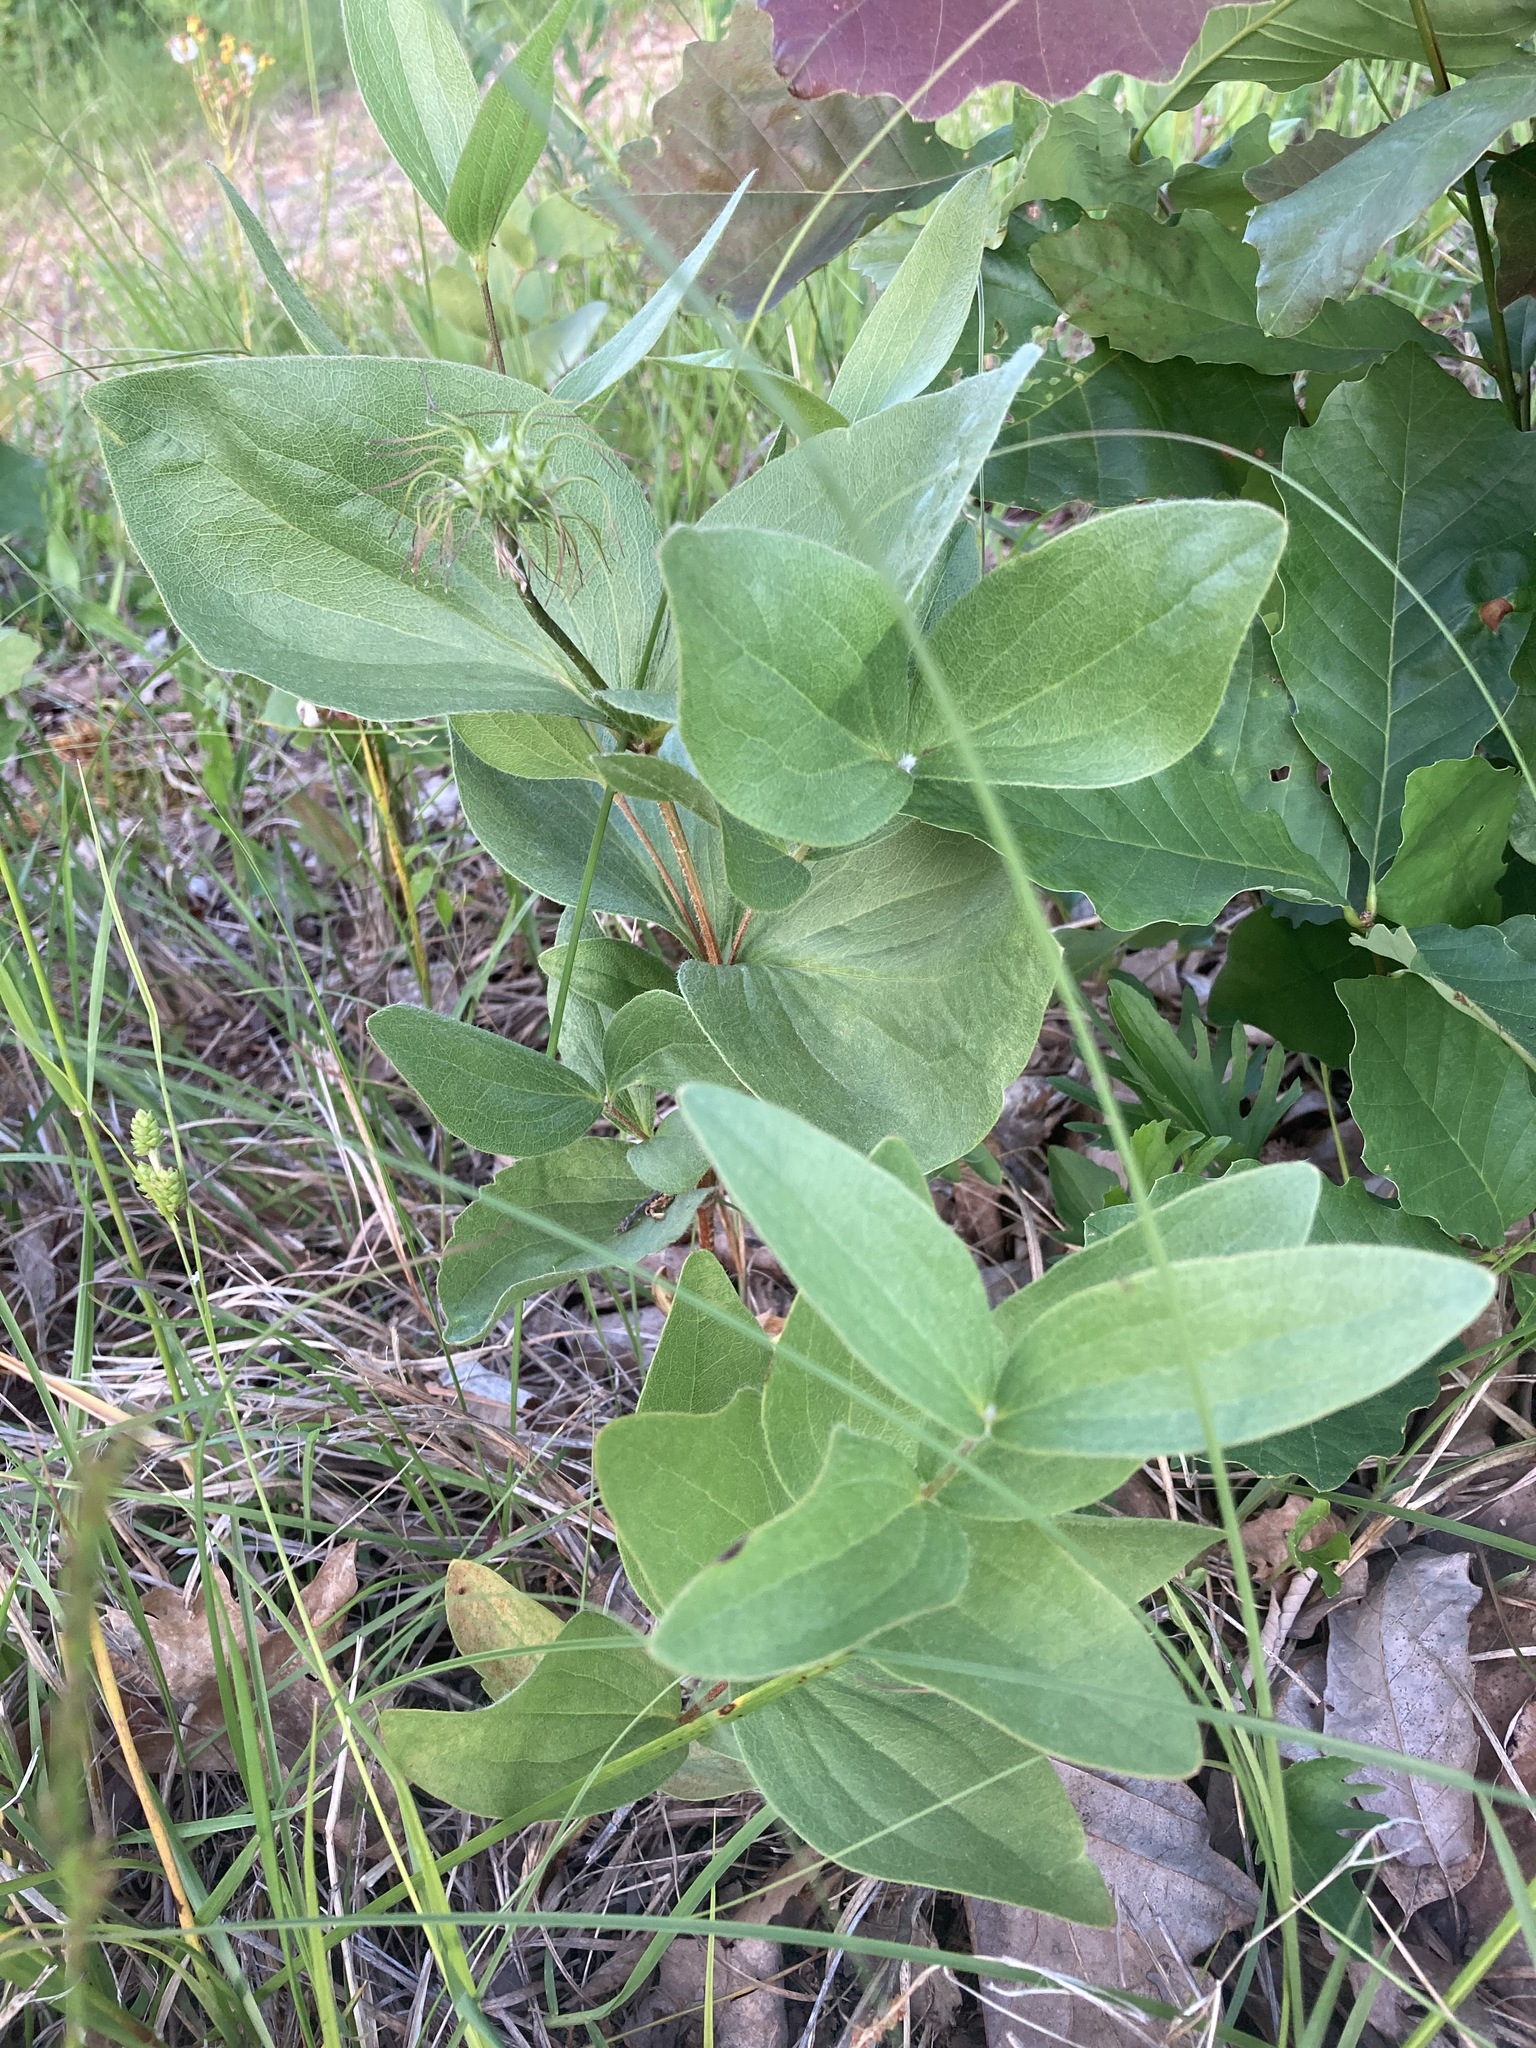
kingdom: Plantae
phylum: Tracheophyta
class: Magnoliopsida
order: Ranunculales
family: Ranunculaceae
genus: Clematis
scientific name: Clematis fremontii
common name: Fremont's clematis
